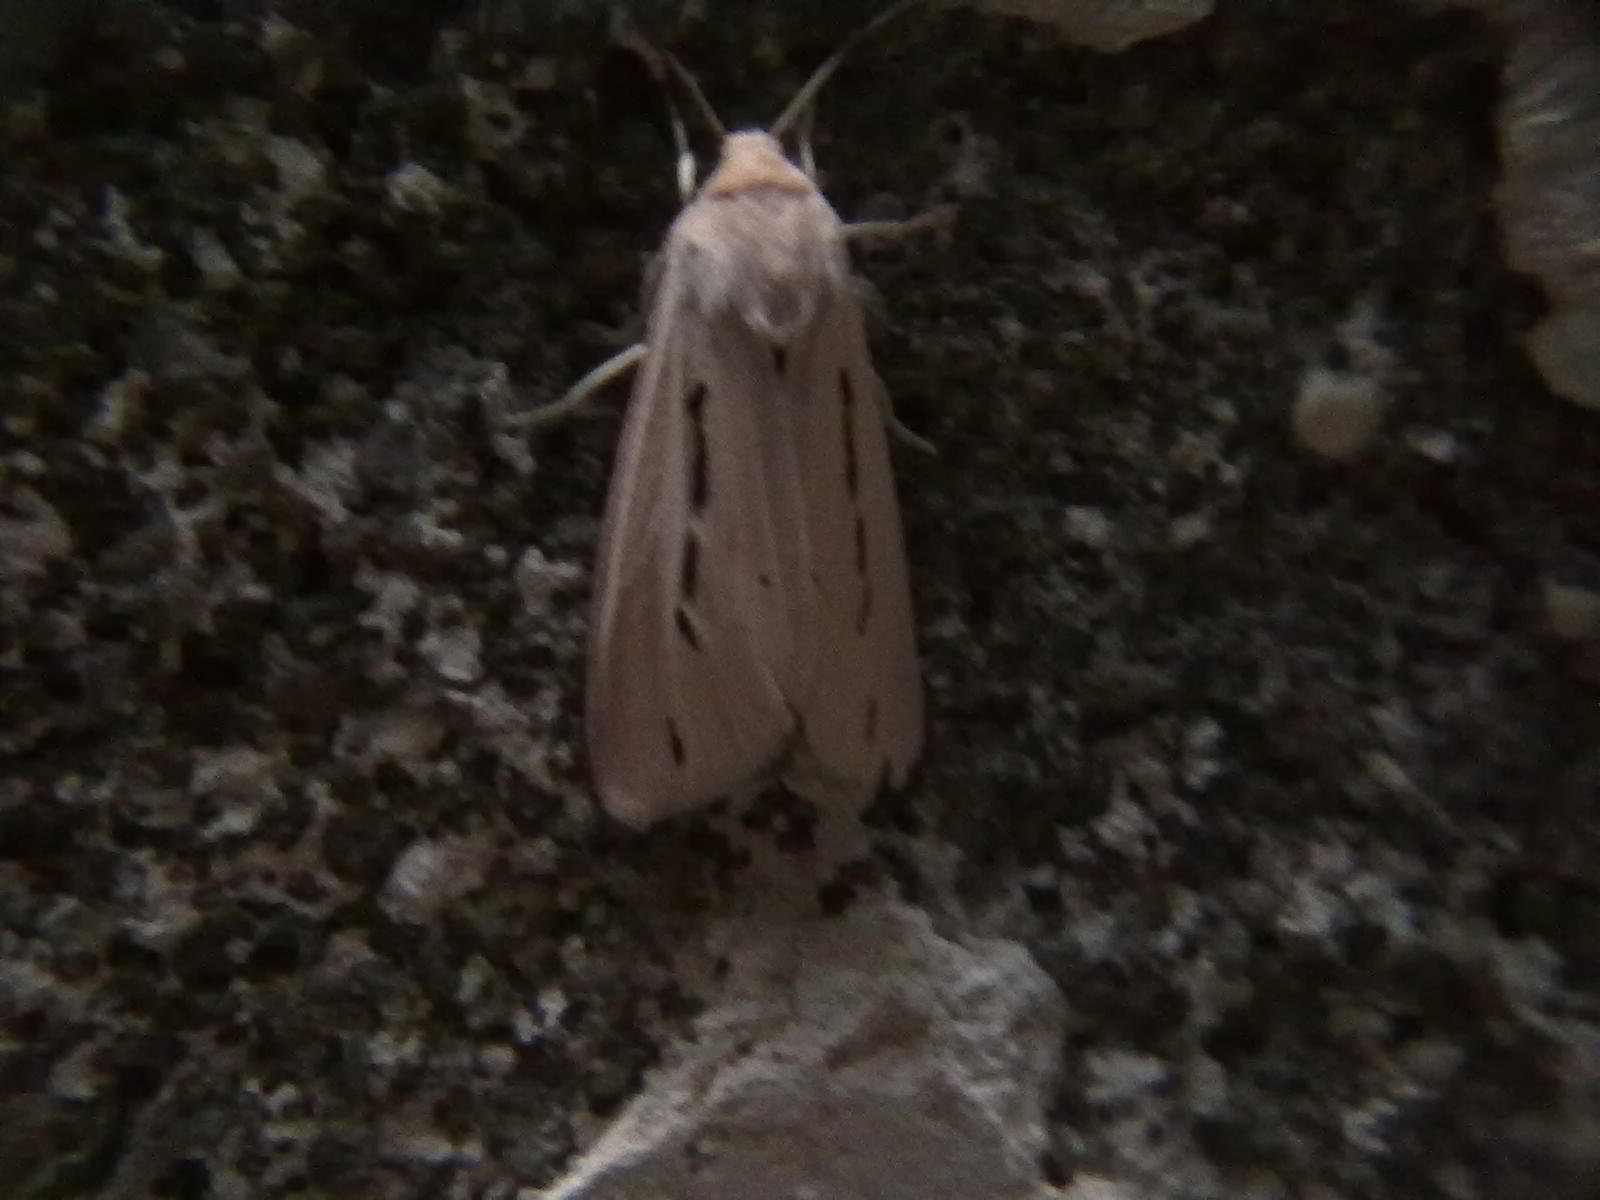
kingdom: Animalia
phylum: Arthropoda
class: Insecta
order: Lepidoptera
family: Erebidae
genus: Micraloa
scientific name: Micraloa
